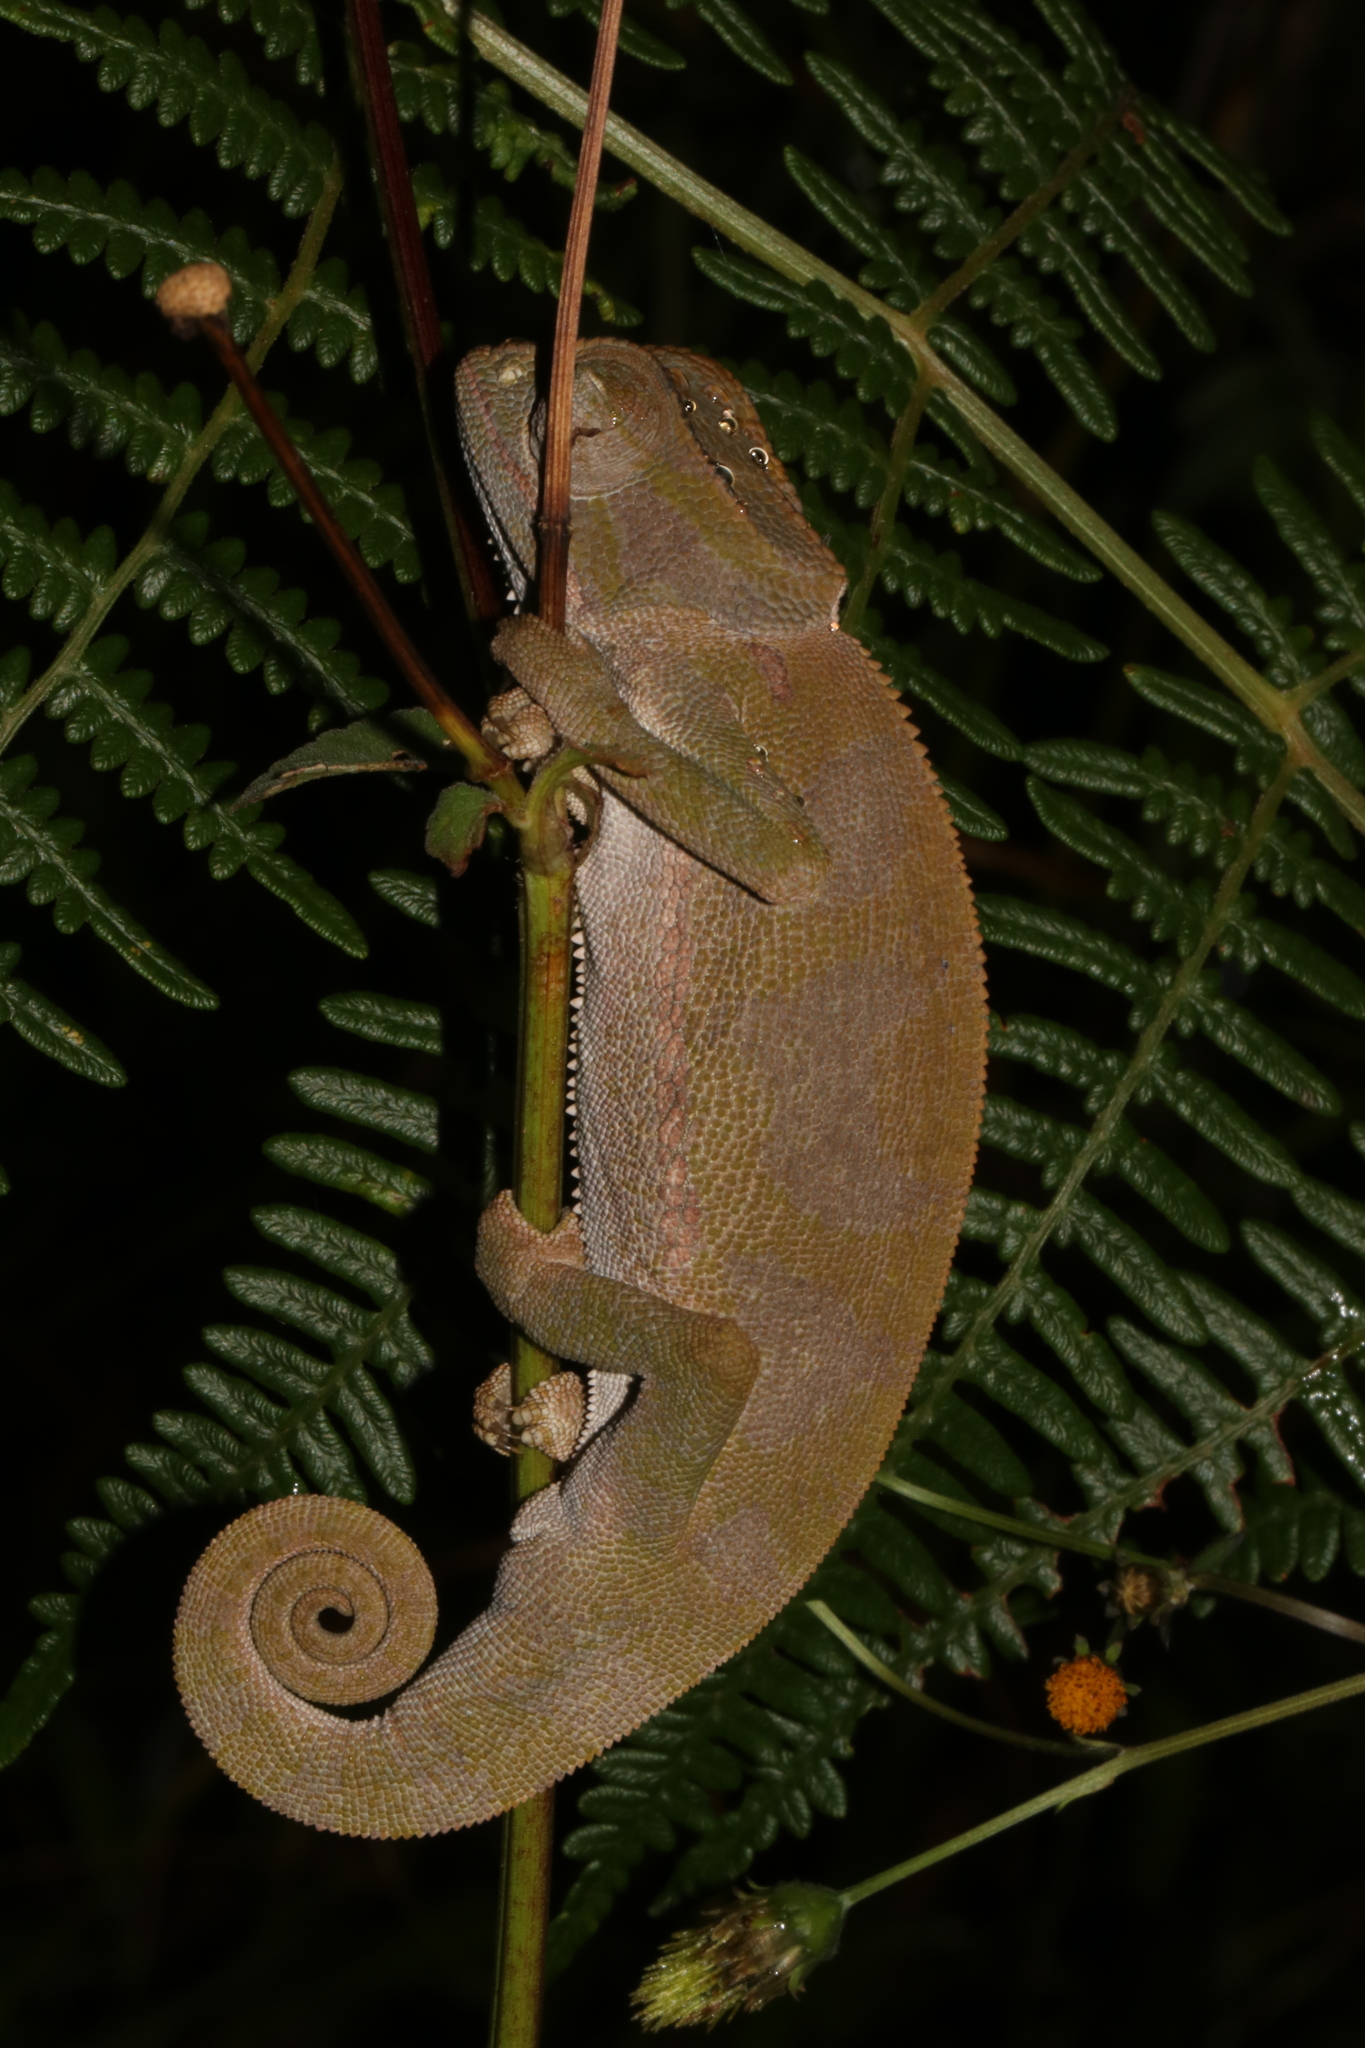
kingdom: Animalia
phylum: Chordata
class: Squamata
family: Chamaeleonidae
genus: Chamaeleo
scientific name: Chamaeleo dilepis
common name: Flapneck chameleon
